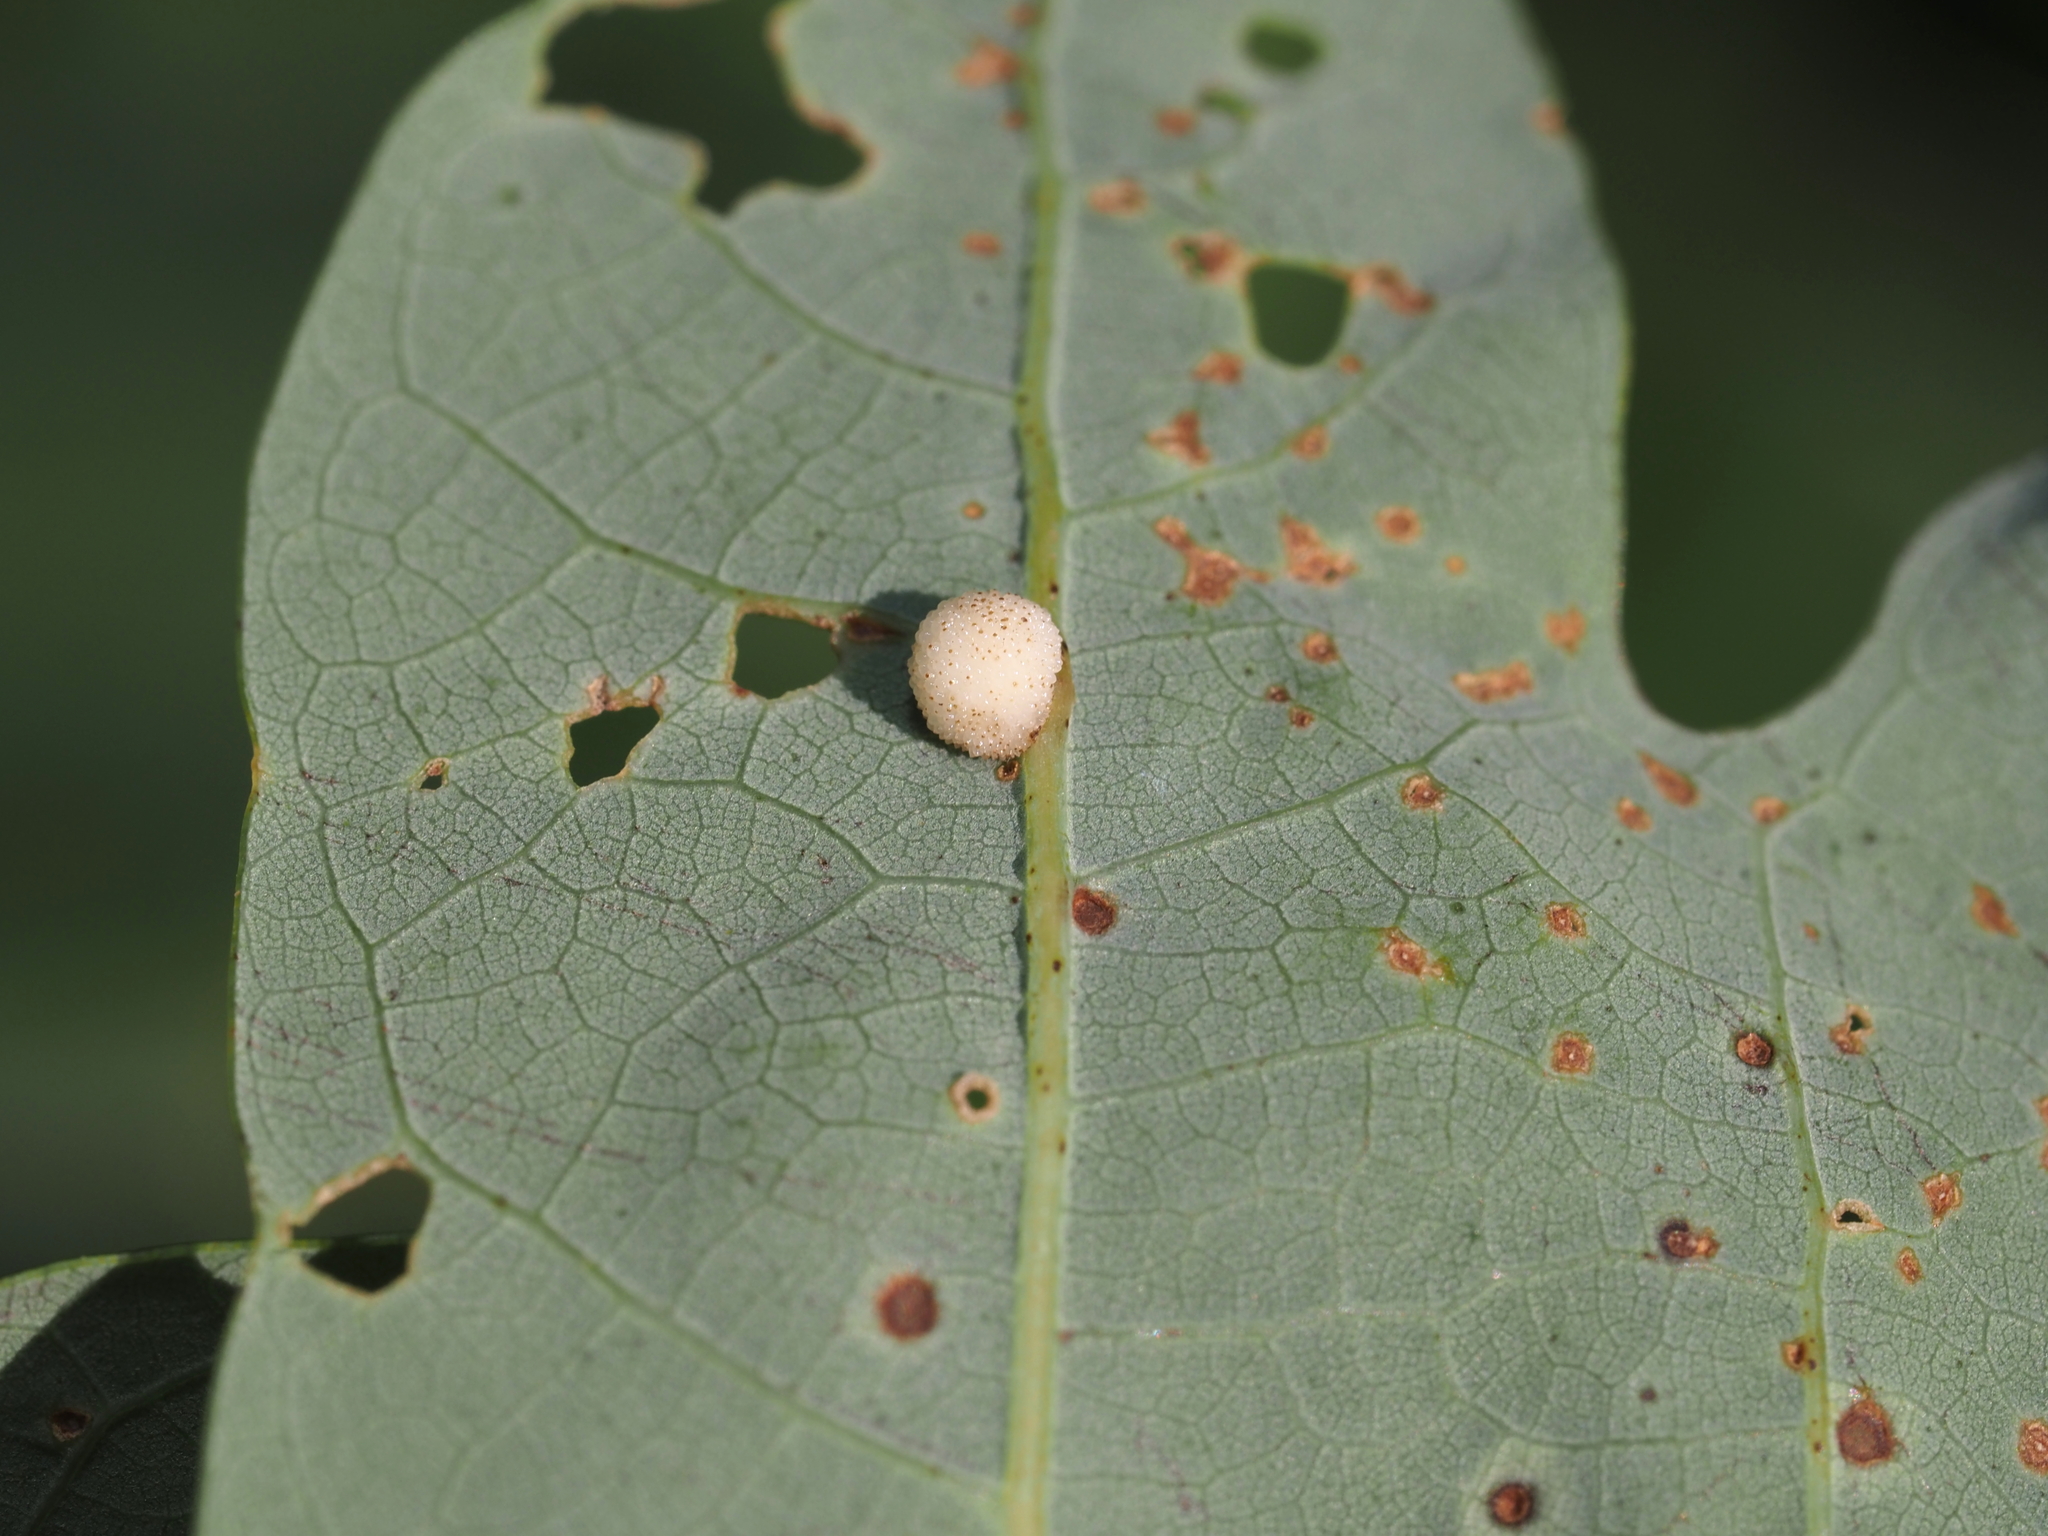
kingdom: Animalia
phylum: Arthropoda
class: Insecta
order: Hymenoptera
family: Cynipidae
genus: Acraspis
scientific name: Acraspis
